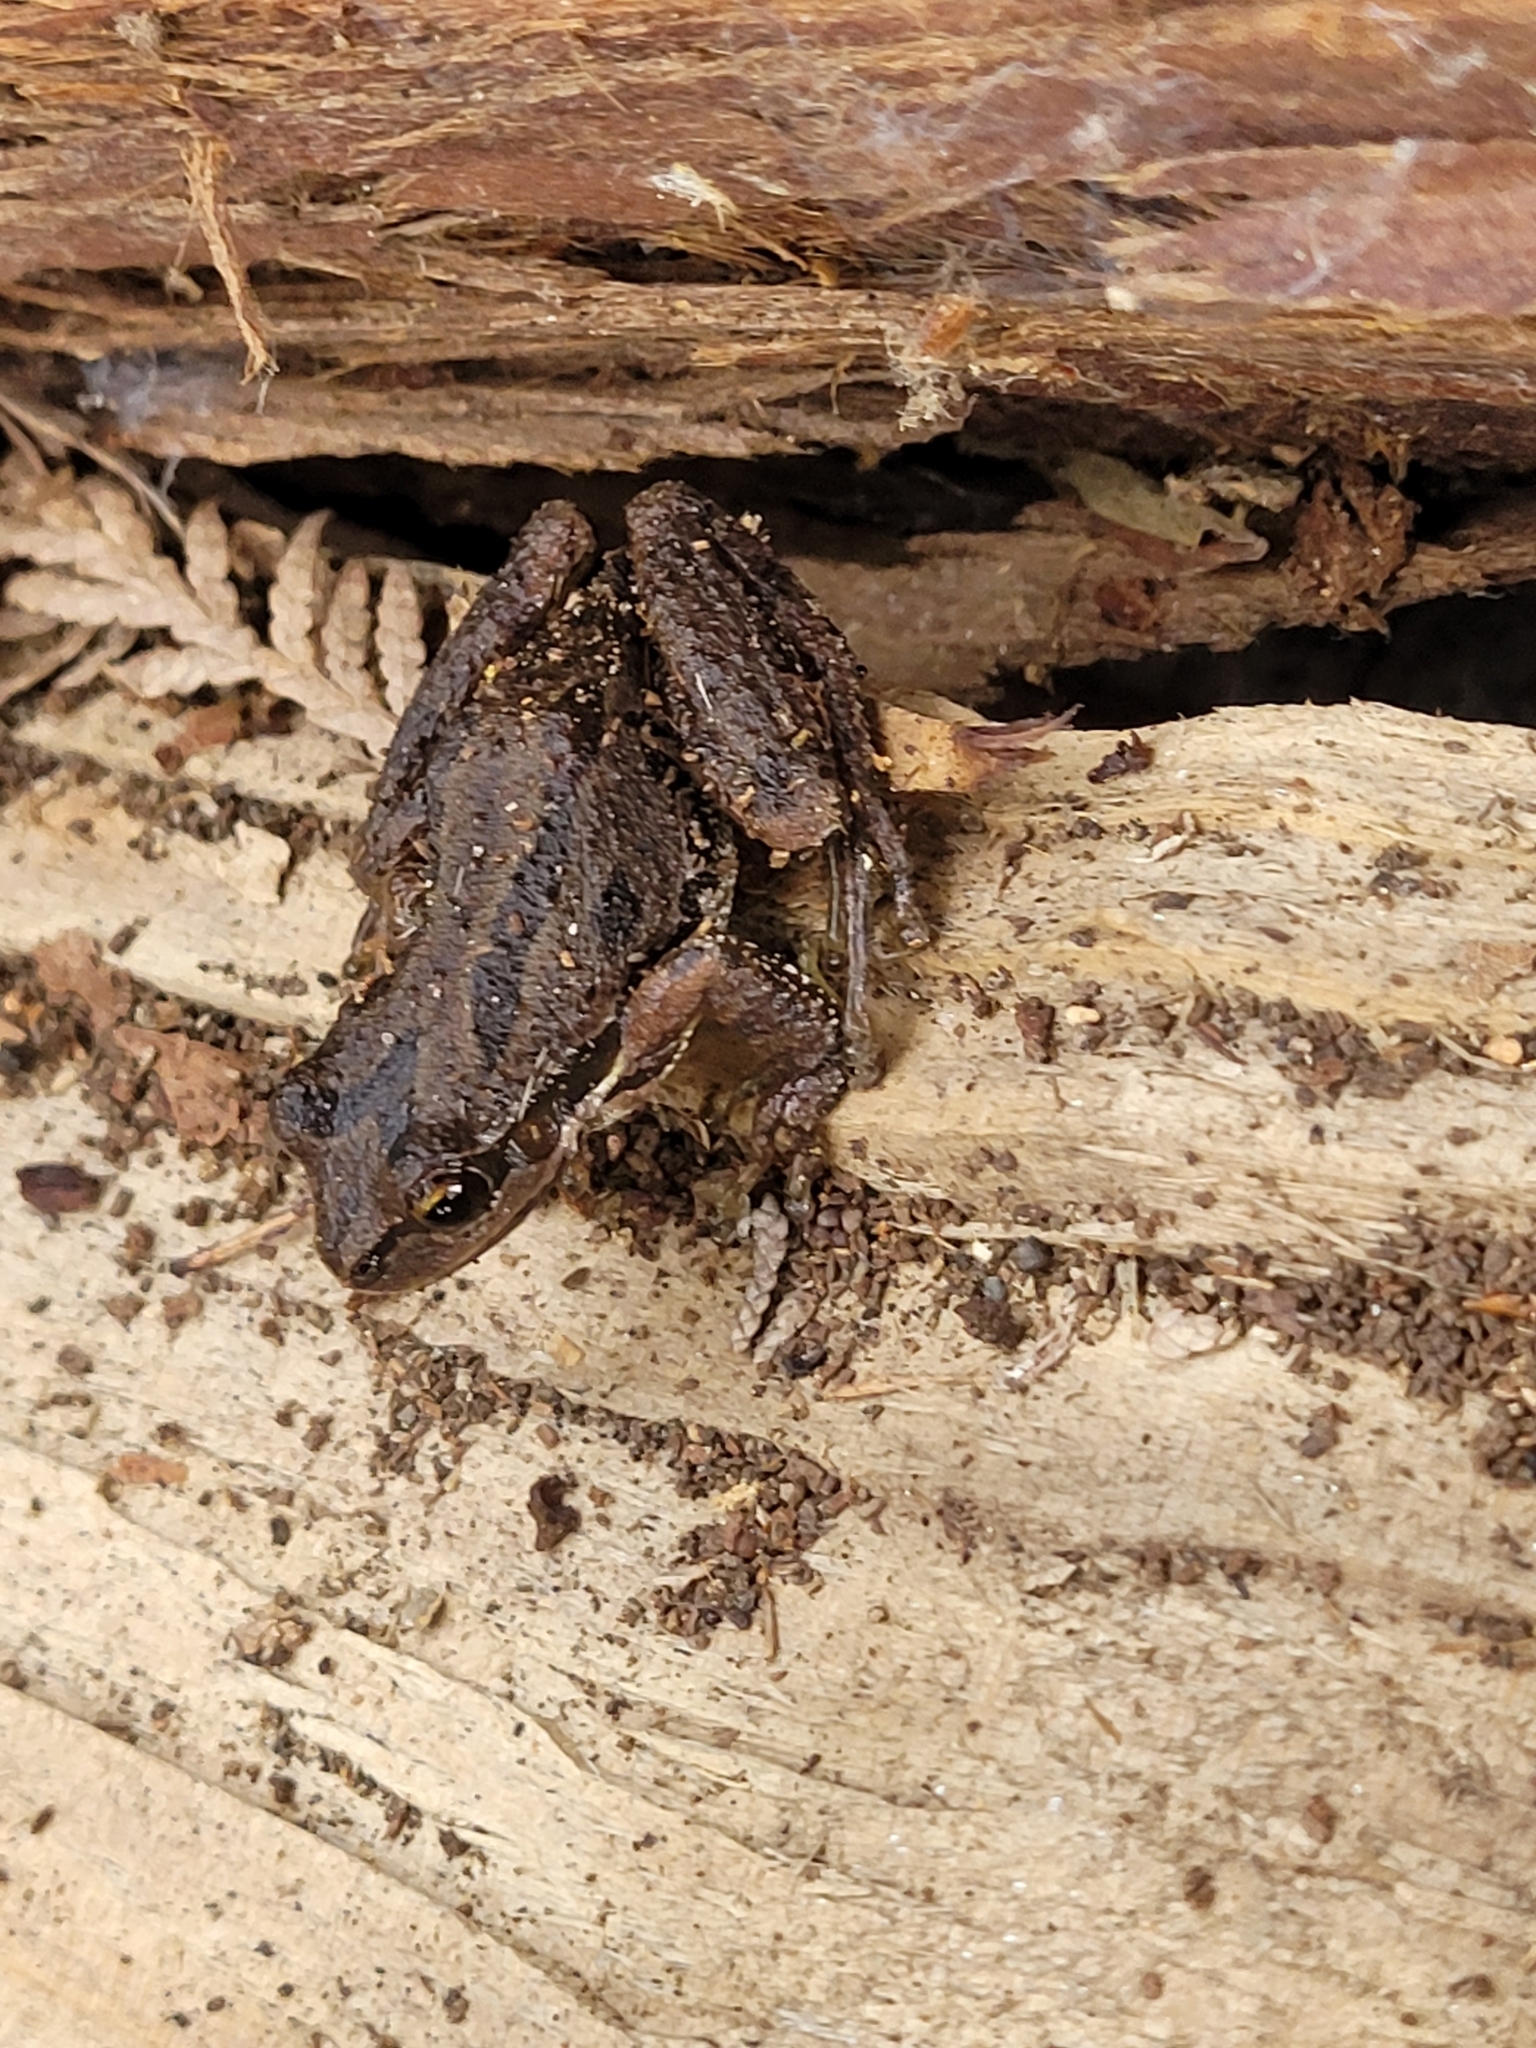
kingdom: Animalia
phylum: Chordata
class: Amphibia
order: Anura
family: Hylidae
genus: Pseudacris
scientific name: Pseudacris regilla
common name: Pacific chorus frog
